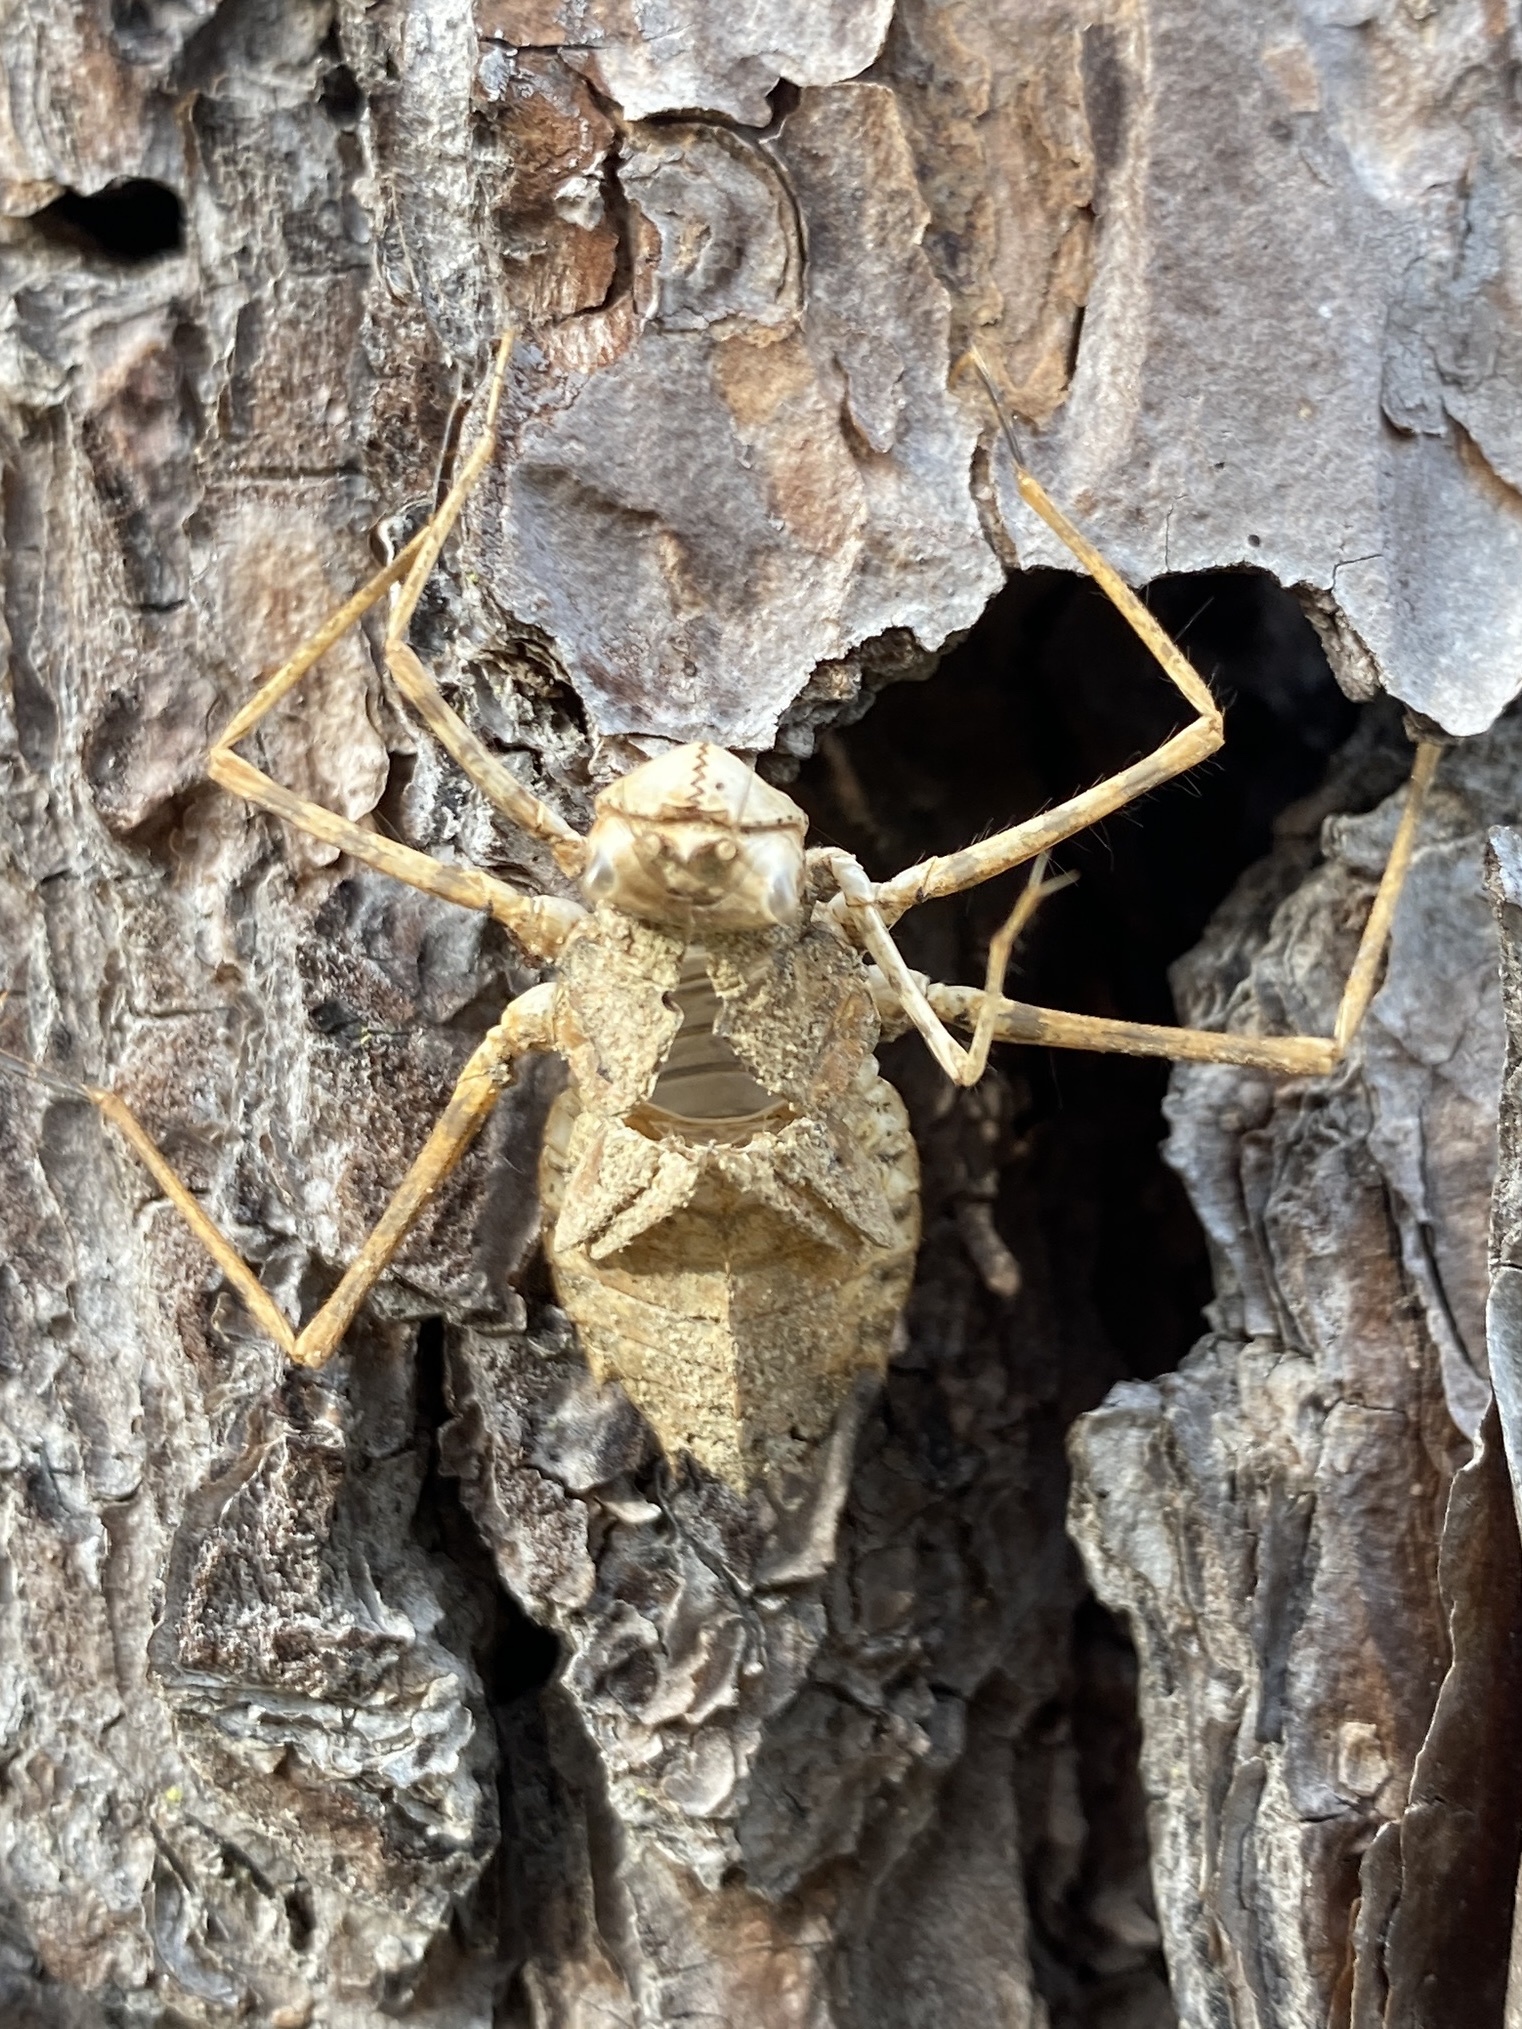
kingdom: Animalia
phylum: Arthropoda
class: Insecta
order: Odonata
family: Macromiidae
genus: Didymops
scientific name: Didymops transversa
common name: Stream cruiser
